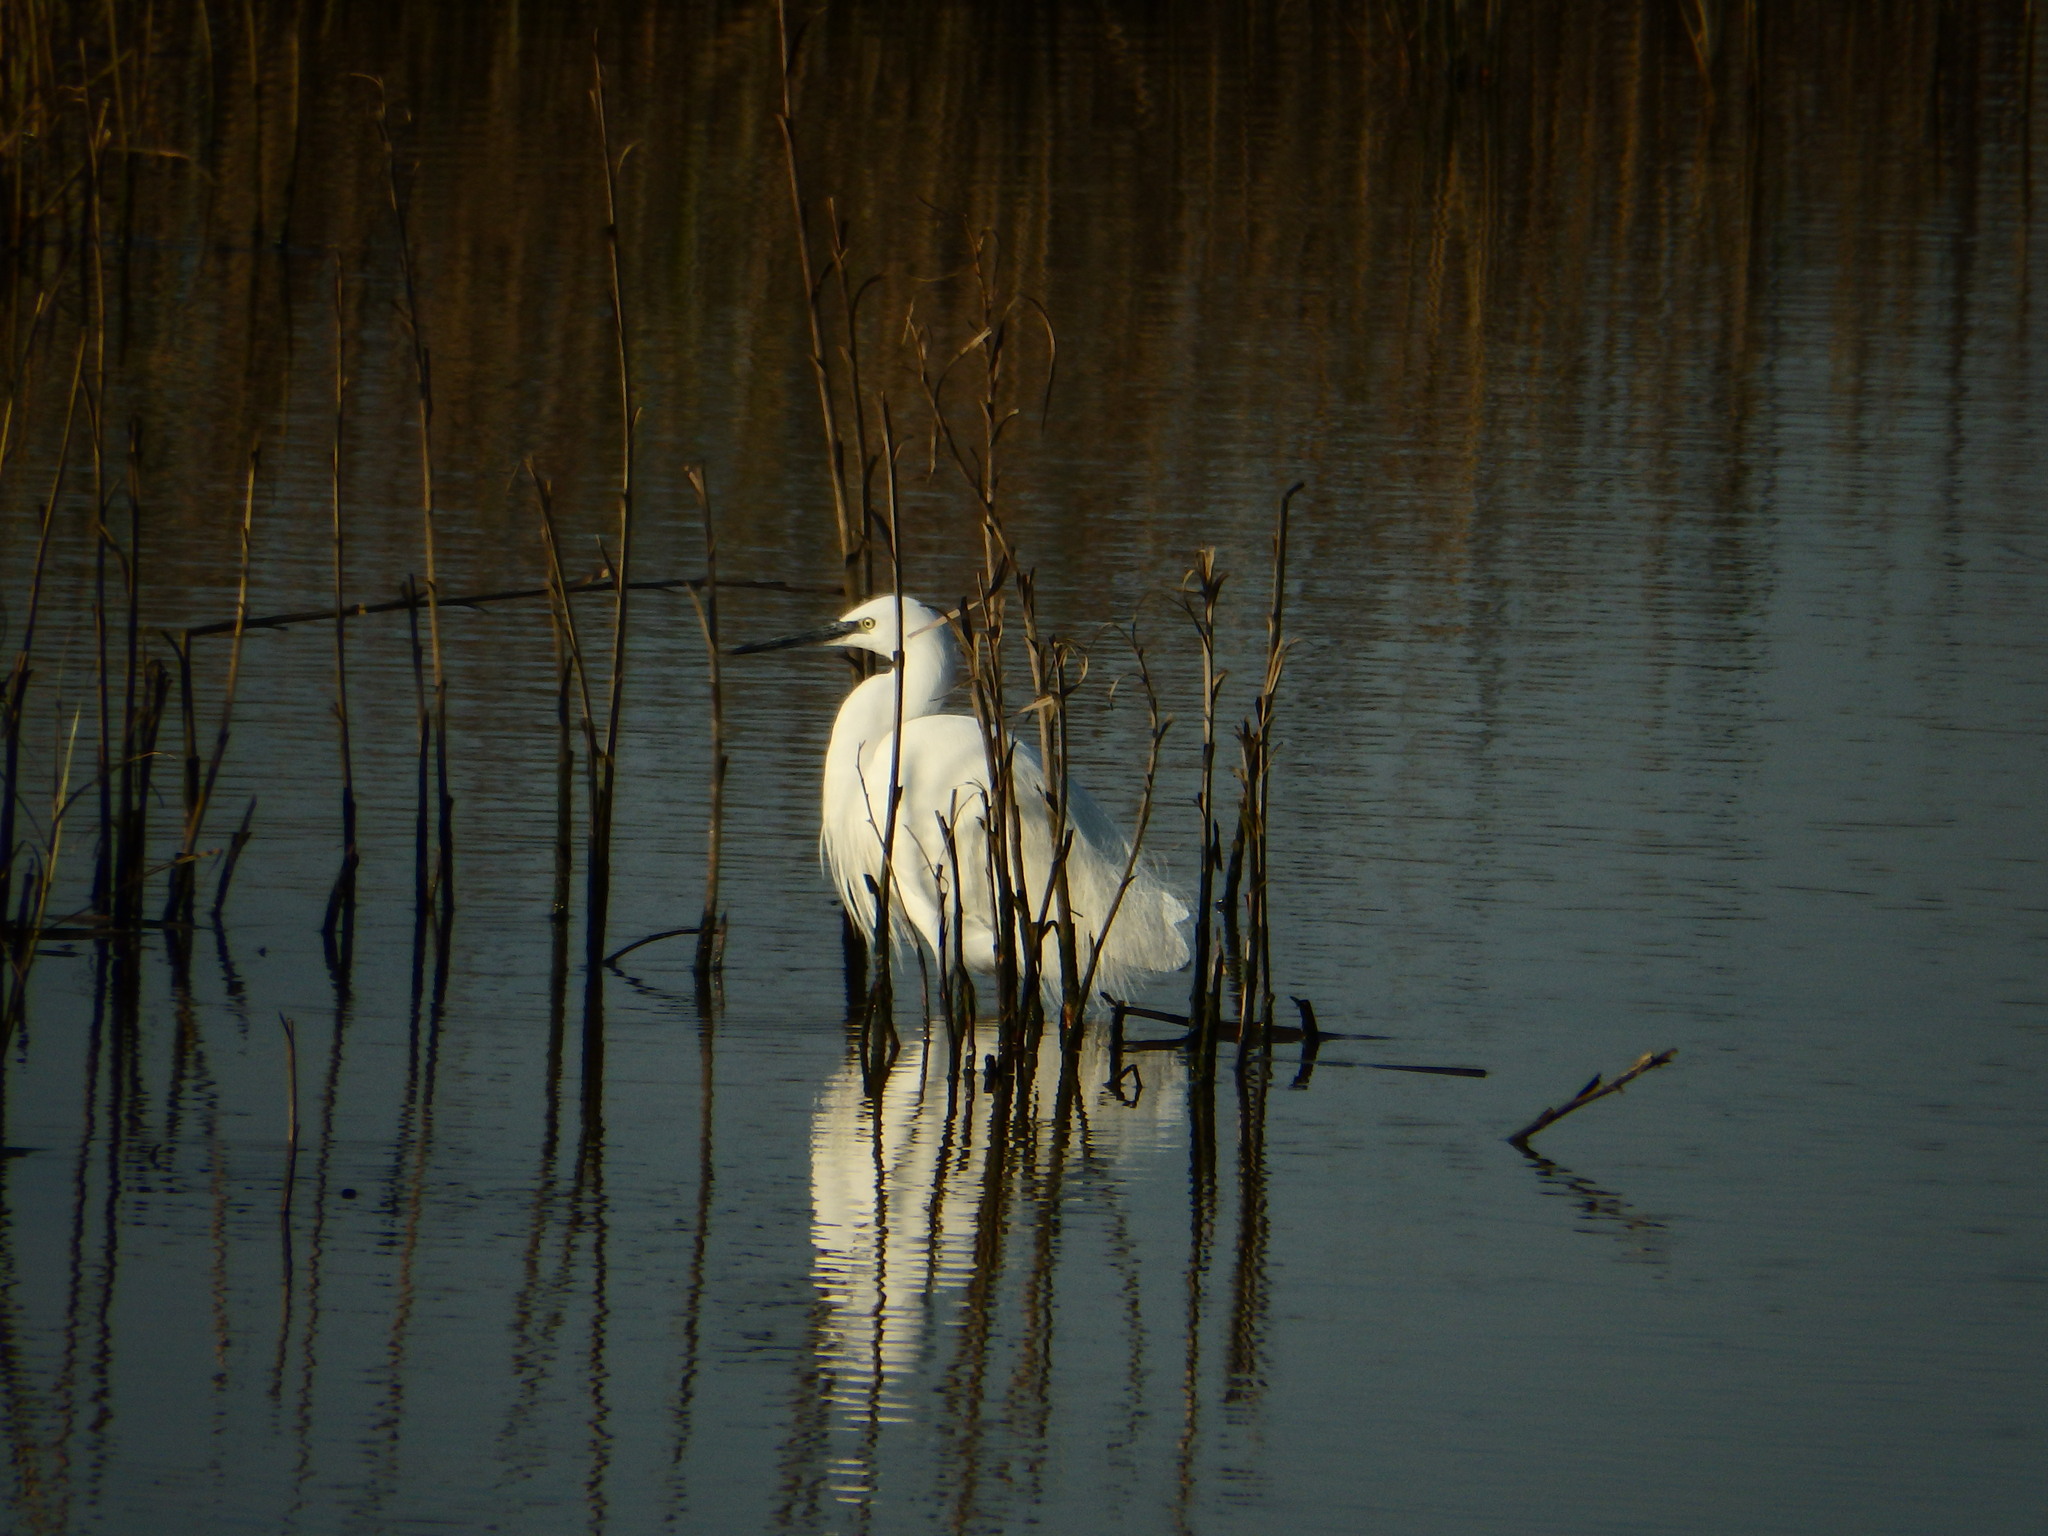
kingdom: Animalia
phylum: Chordata
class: Aves
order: Pelecaniformes
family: Ardeidae
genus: Egretta
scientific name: Egretta garzetta
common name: Little egret
